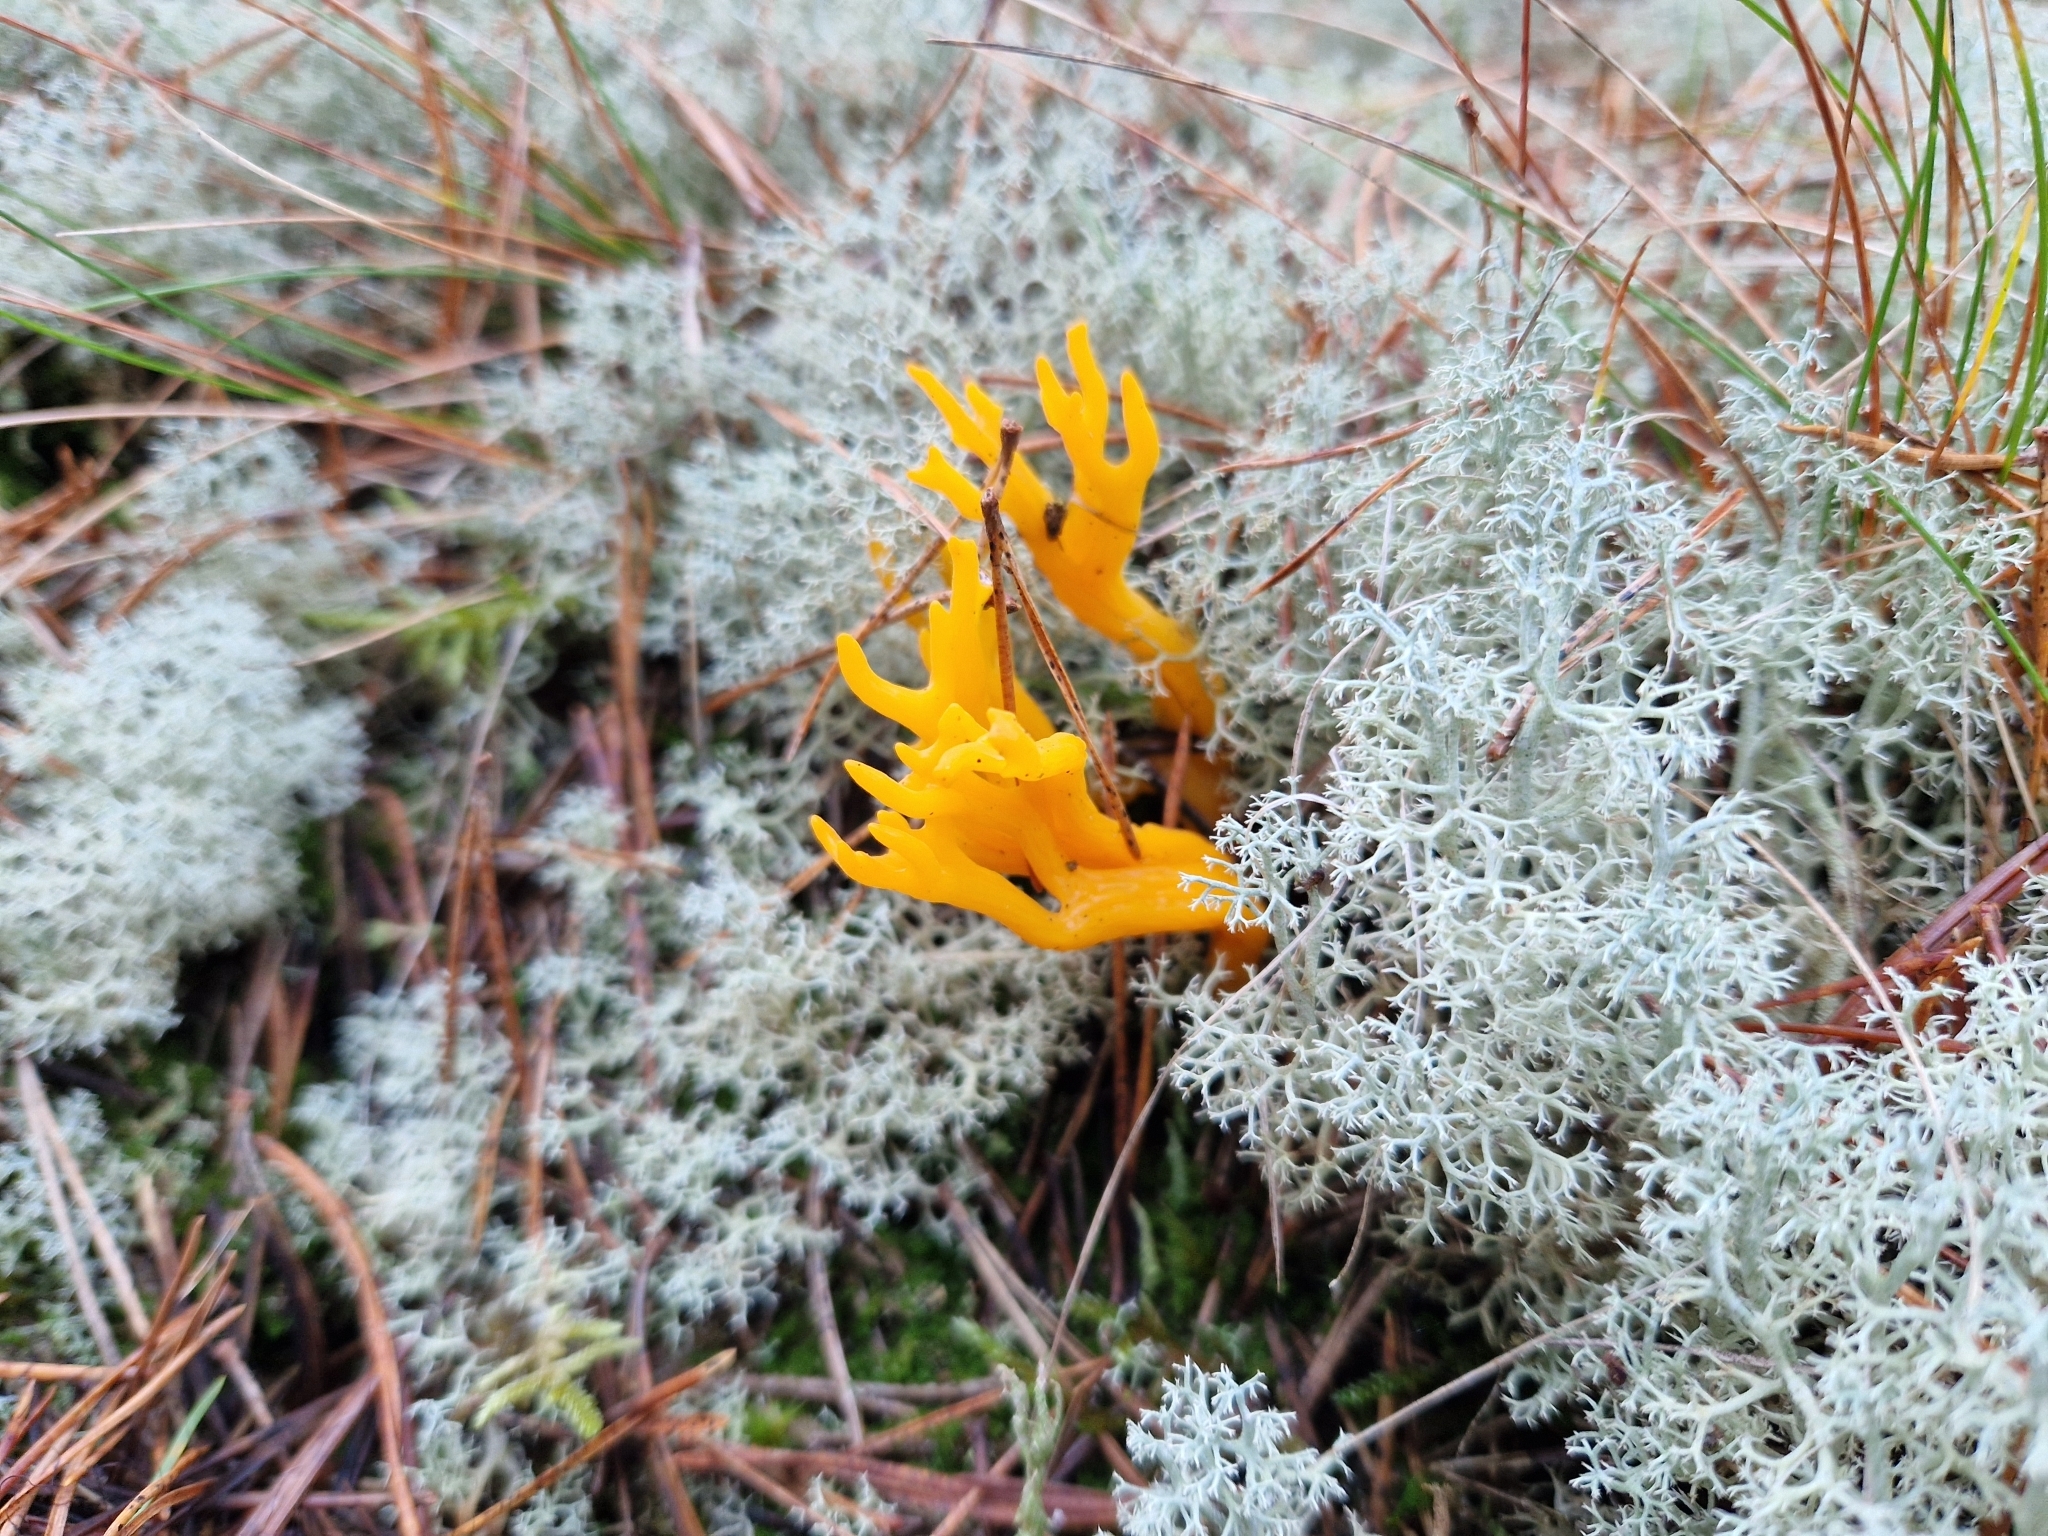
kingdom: Fungi
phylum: Basidiomycota
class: Dacrymycetes
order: Dacrymycetales
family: Dacrymycetaceae
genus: Calocera
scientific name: Calocera viscosa
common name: Yellow stagshorn
